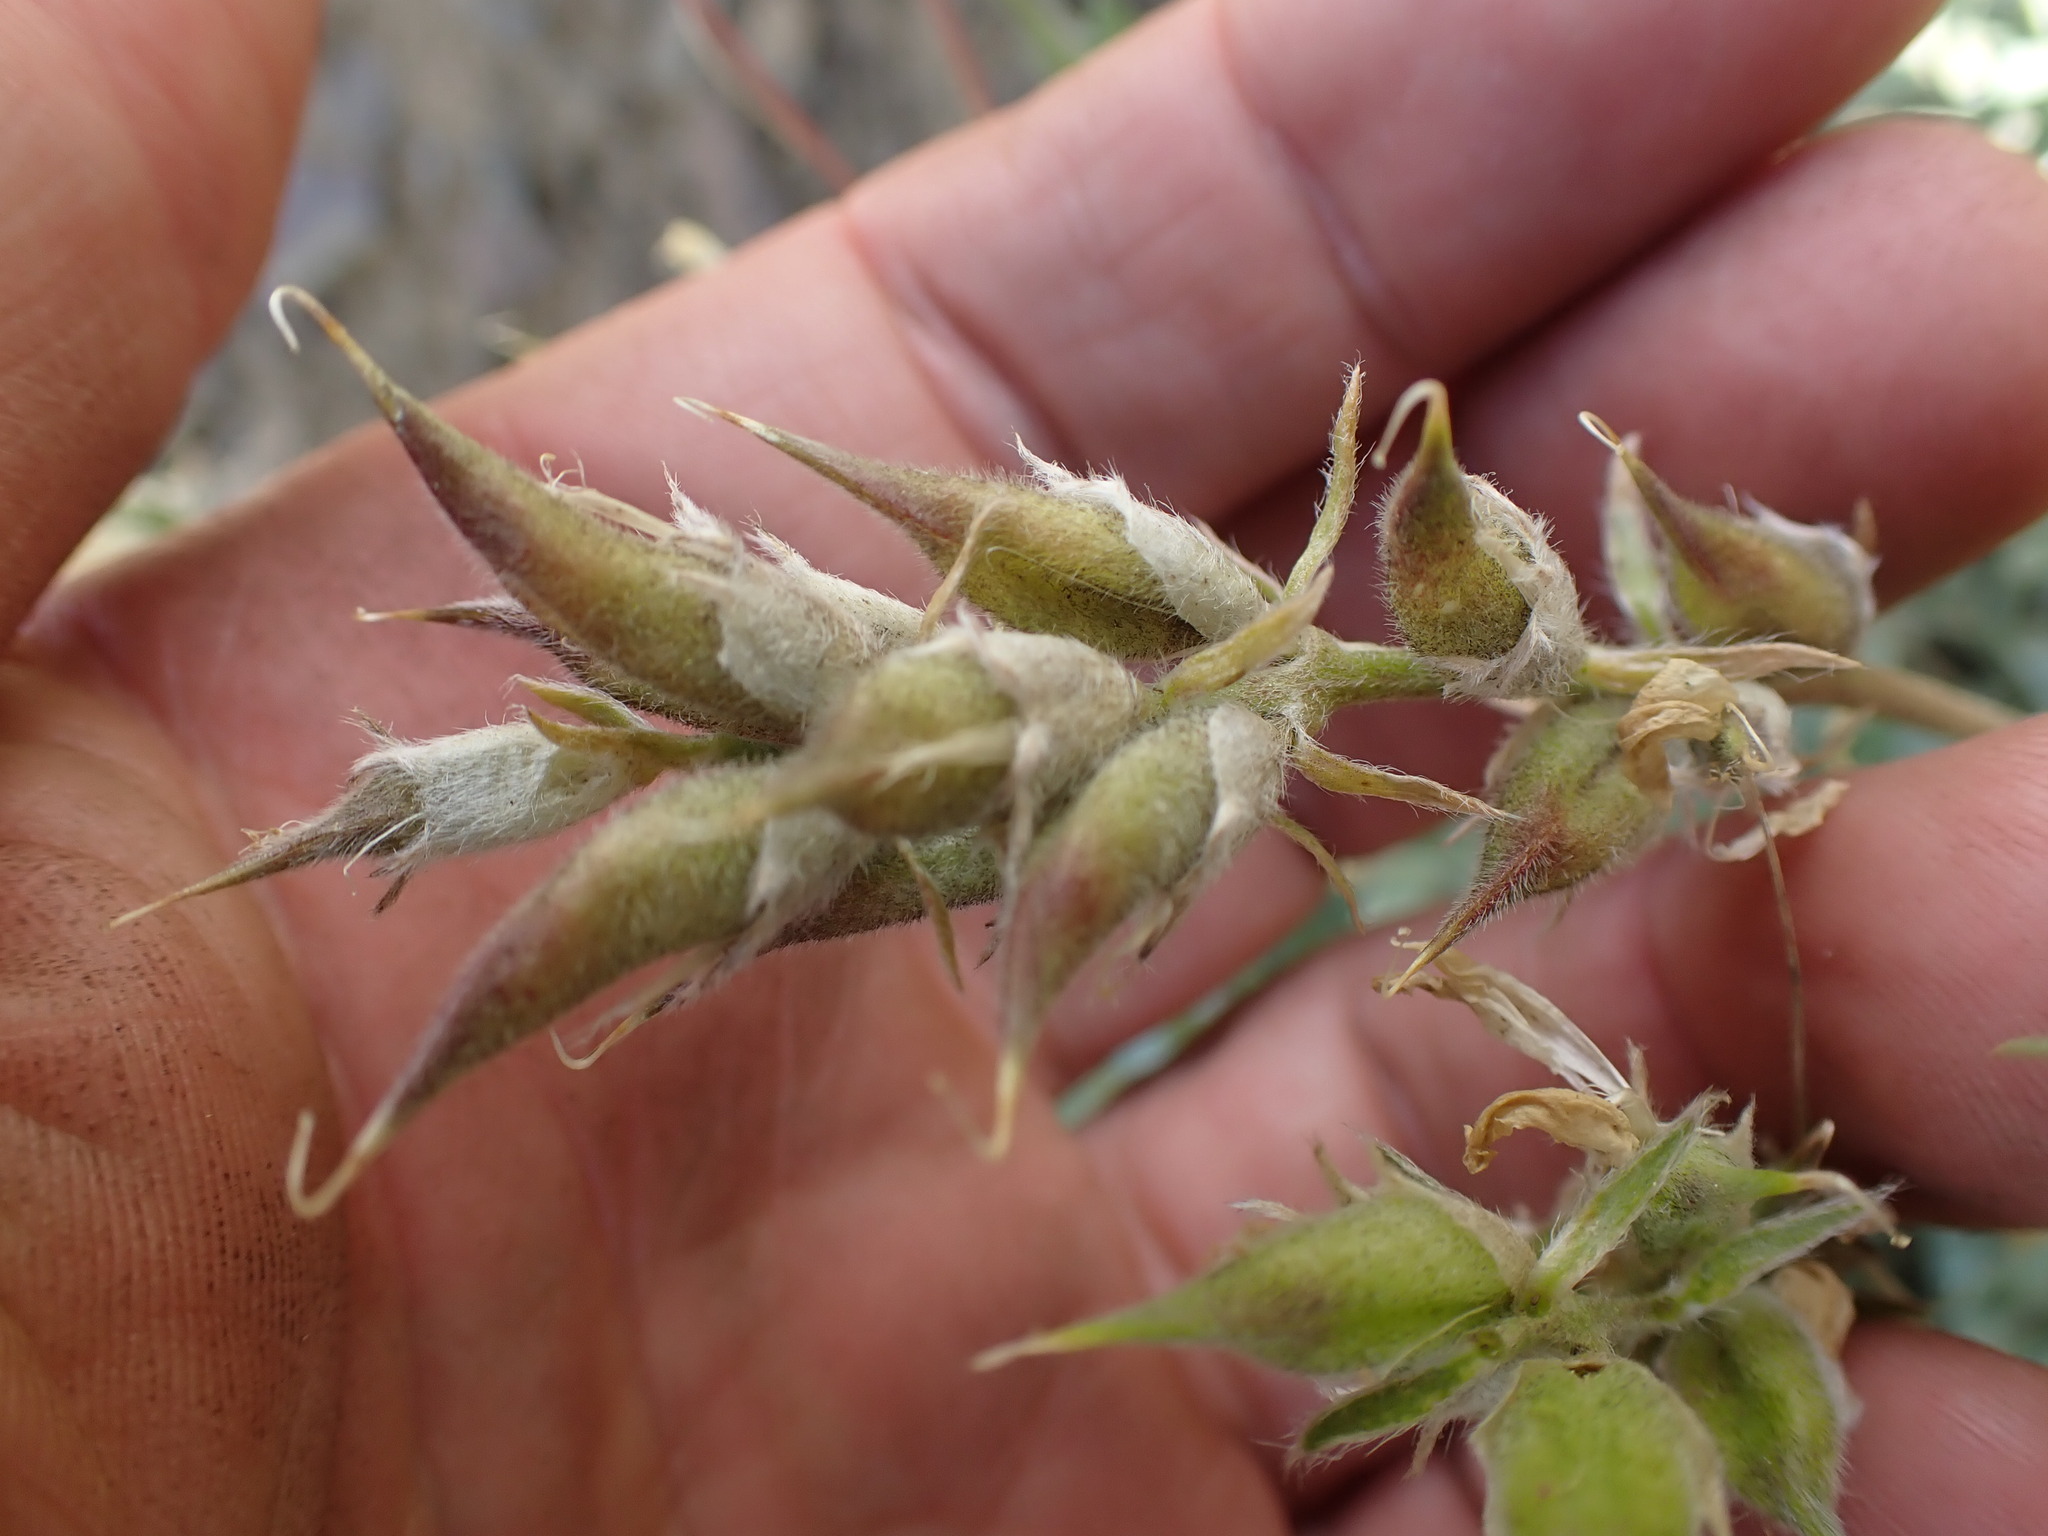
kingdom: Plantae
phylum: Tracheophyta
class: Magnoliopsida
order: Fabales
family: Fabaceae
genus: Oxytropis
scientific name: Oxytropis sericea
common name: Silky locoweed
